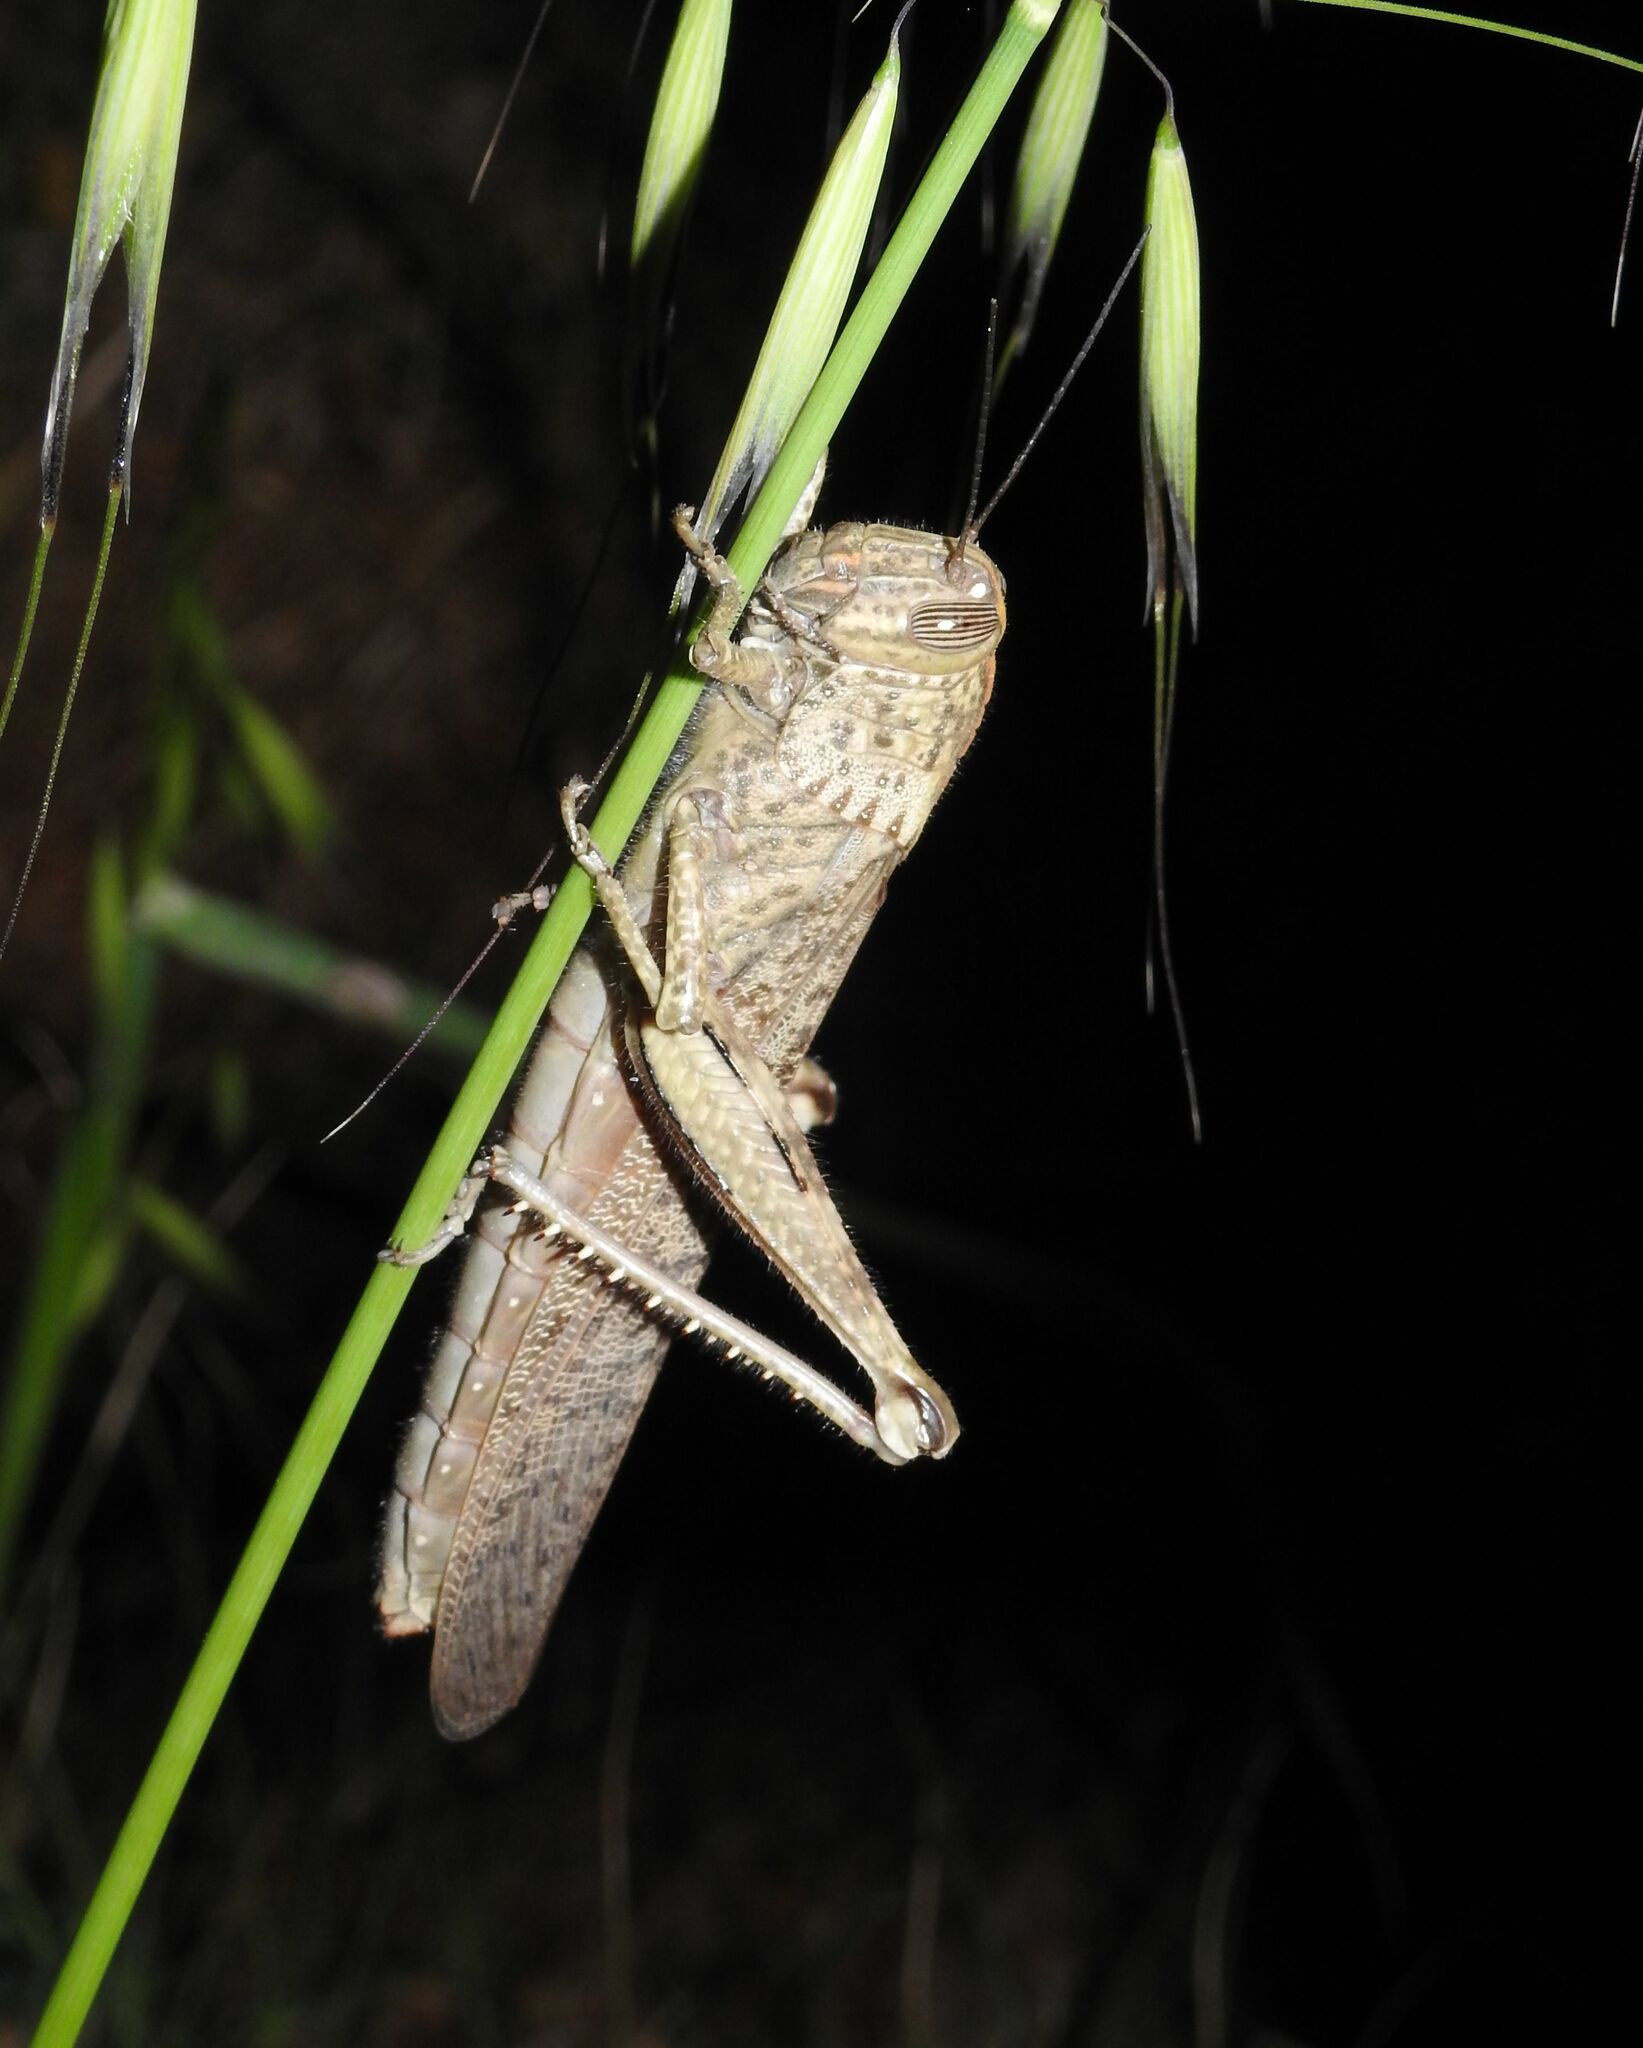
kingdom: Animalia
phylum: Arthropoda
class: Insecta
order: Orthoptera
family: Acrididae
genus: Anacridium
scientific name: Anacridium aegyptium
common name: Egyptian grasshopper
